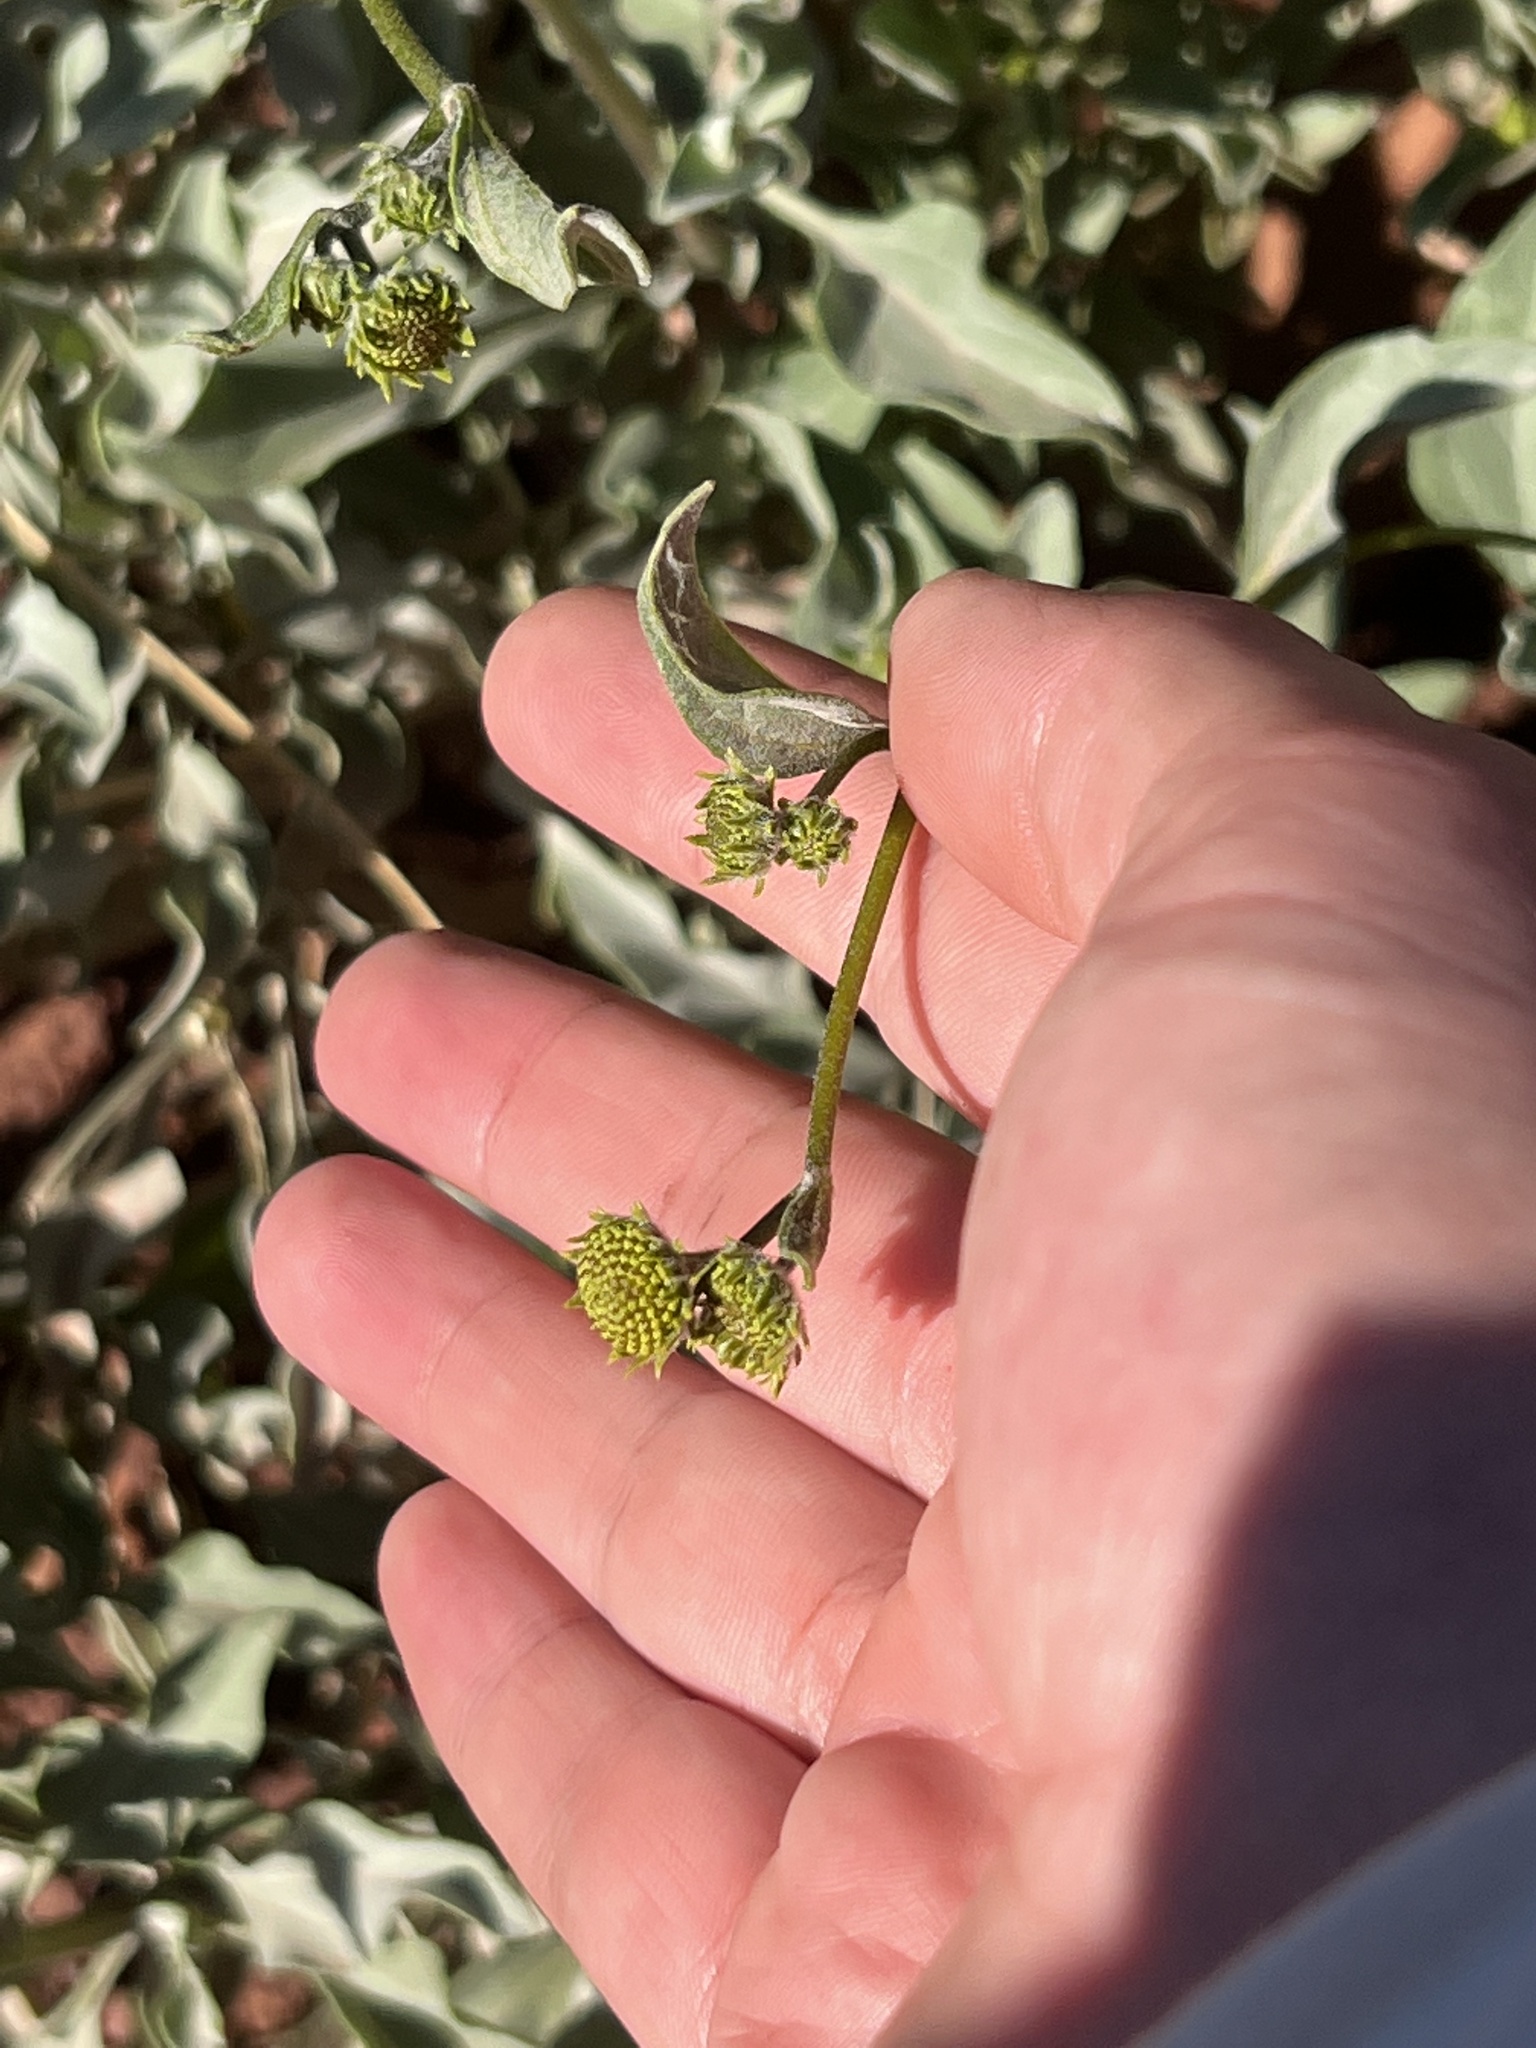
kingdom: Plantae
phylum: Tracheophyta
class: Magnoliopsida
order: Asterales
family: Asteraceae
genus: Encelia
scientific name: Encelia farinosa
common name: Brittlebush
